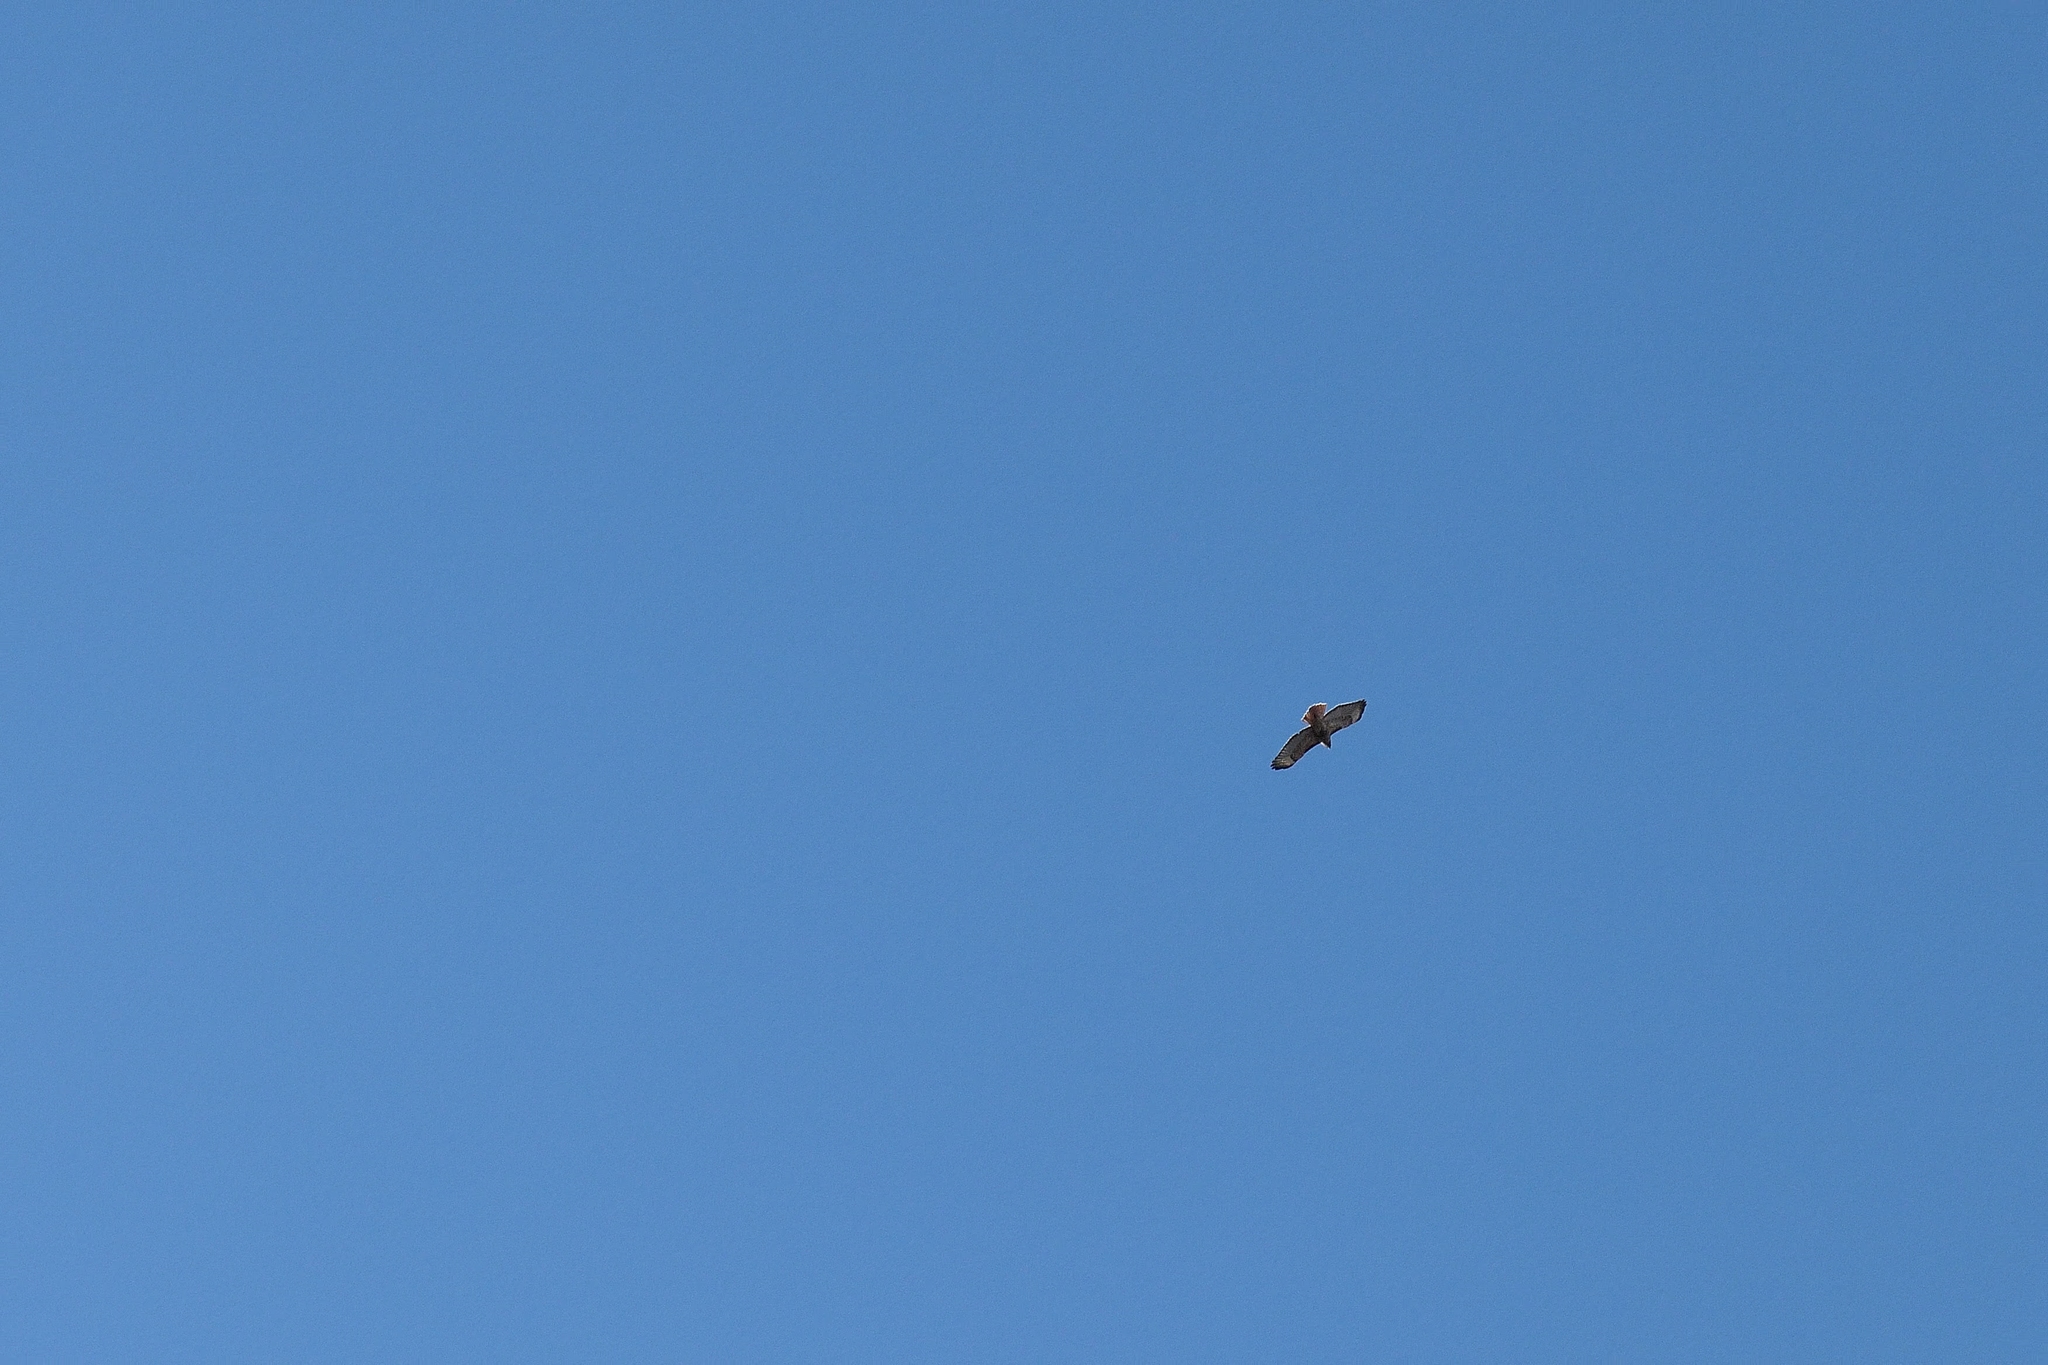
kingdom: Animalia
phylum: Chordata
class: Aves
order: Accipitriformes
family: Accipitridae
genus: Buteo
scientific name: Buteo jamaicensis
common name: Red-tailed hawk
